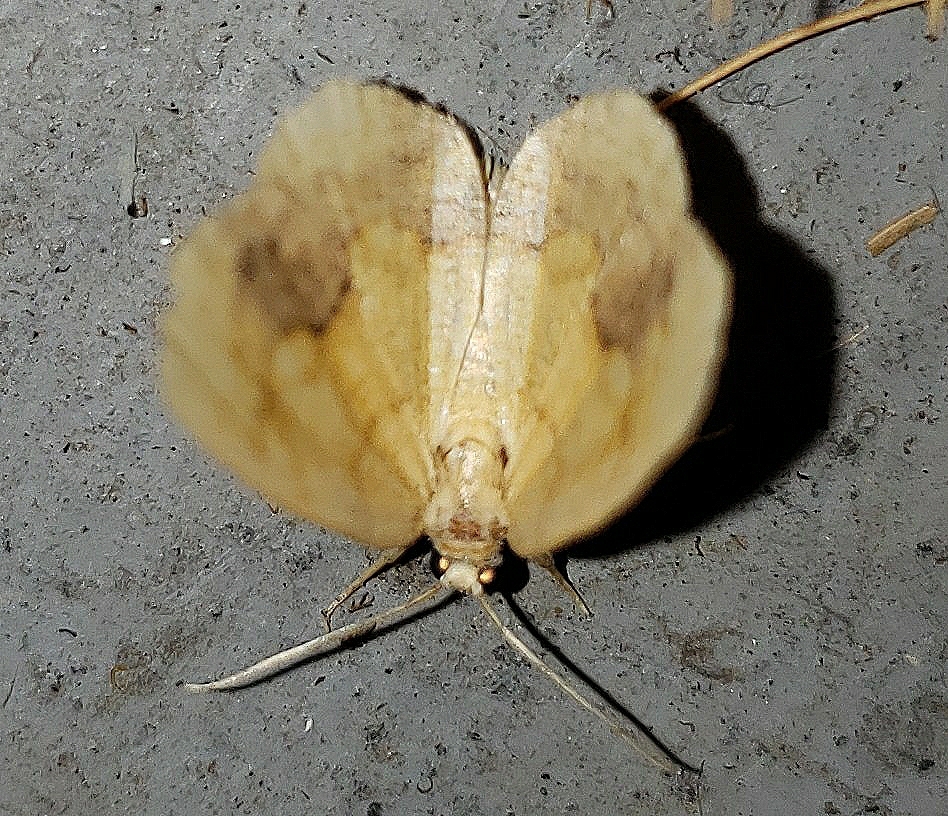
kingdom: Animalia
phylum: Arthropoda
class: Insecta
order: Lepidoptera
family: Geometridae
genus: Nematocampa
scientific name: Nematocampa resistaria
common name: Horned spanworm moth
